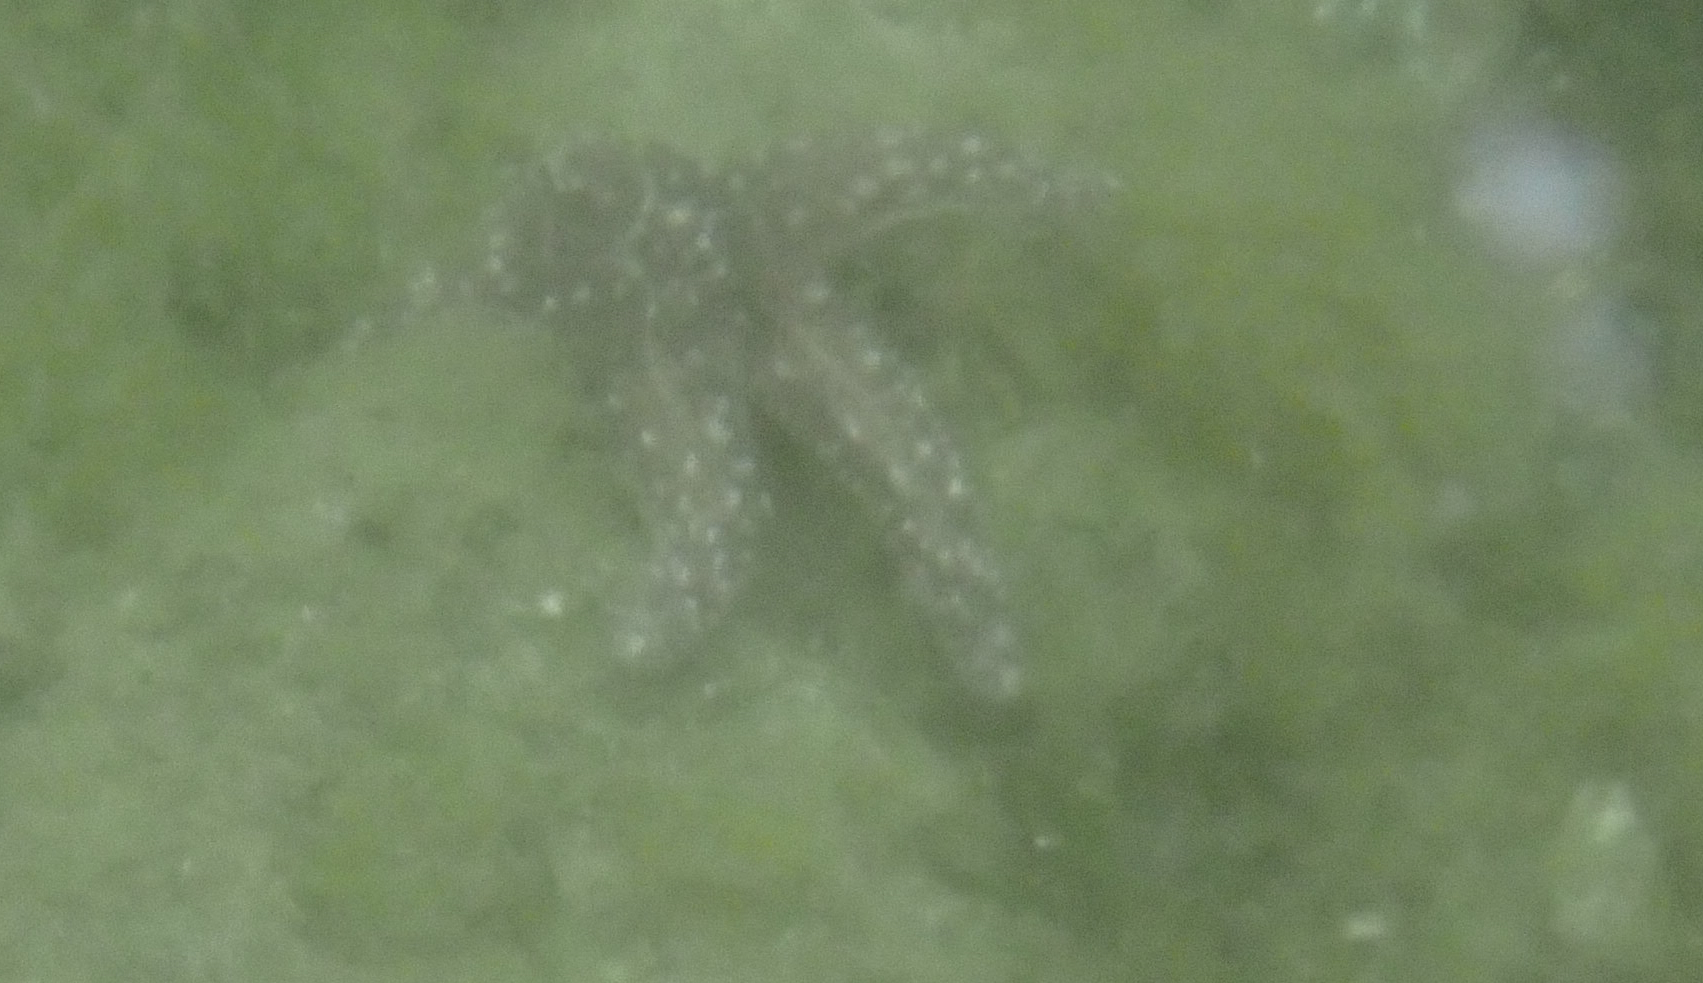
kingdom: Animalia
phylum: Echinodermata
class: Asteroidea
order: Forcipulatida
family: Asteriidae
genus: Evasterias
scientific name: Evasterias troschelii
